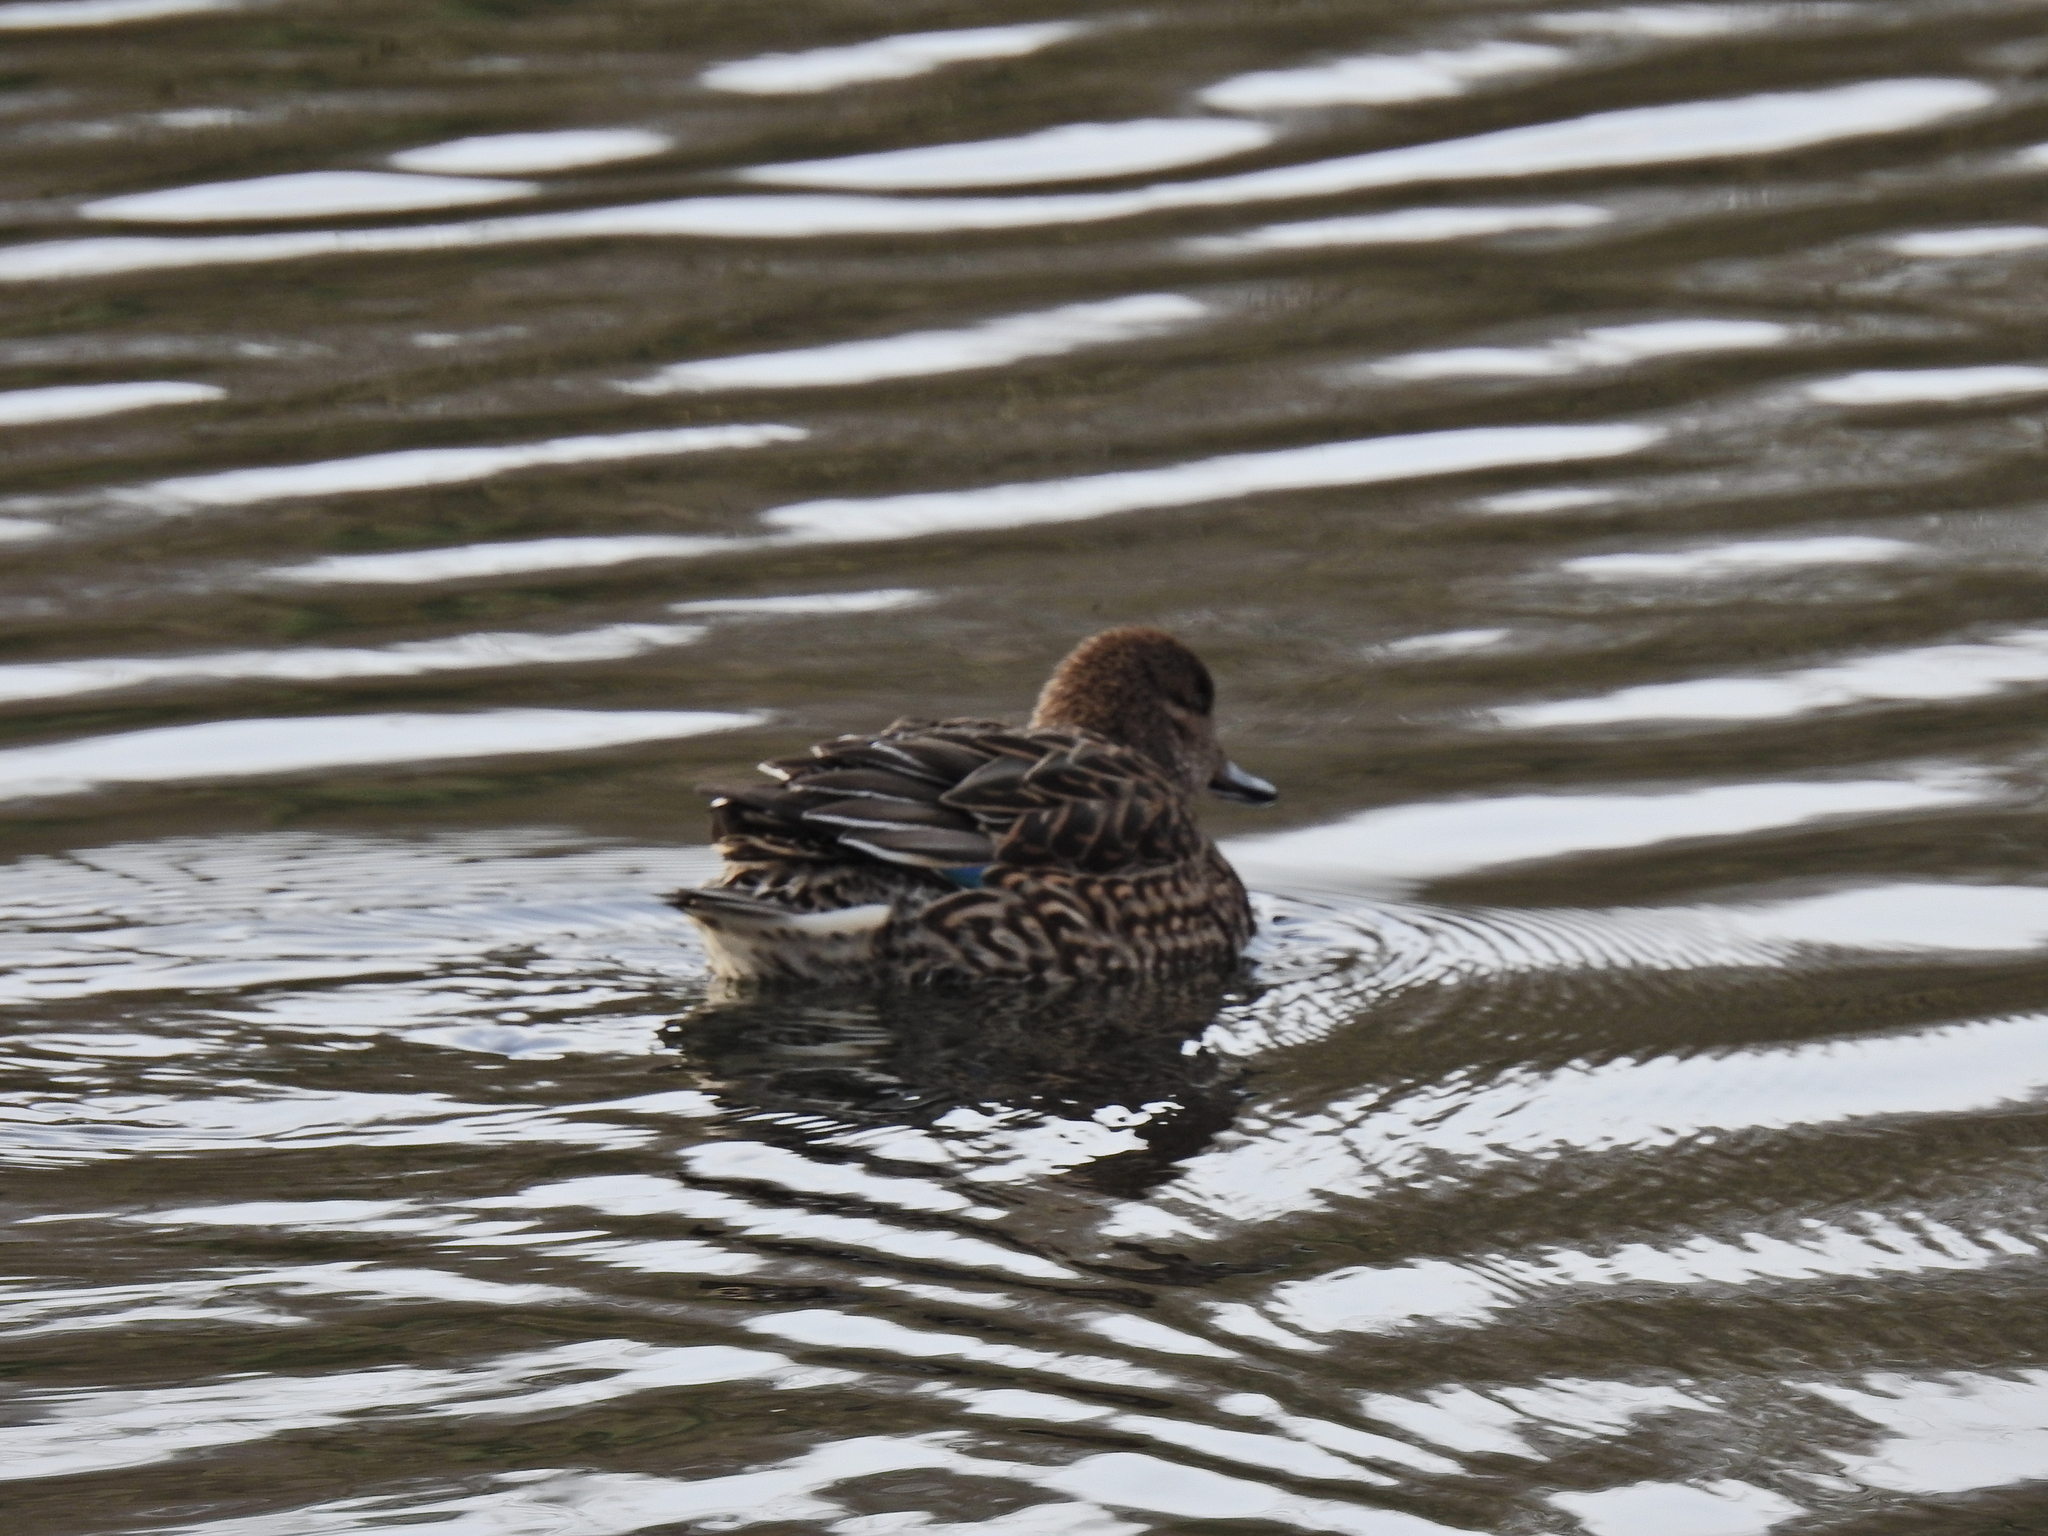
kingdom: Animalia
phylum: Chordata
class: Aves
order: Anseriformes
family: Anatidae
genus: Anas
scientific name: Anas crecca
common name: Eurasian teal
